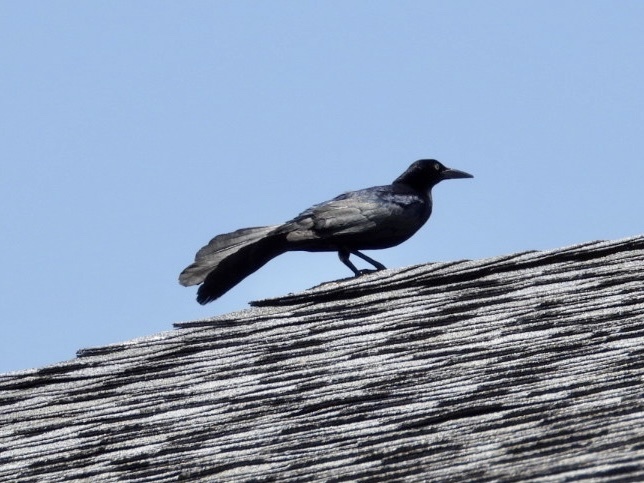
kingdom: Animalia
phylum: Chordata
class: Aves
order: Passeriformes
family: Icteridae
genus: Quiscalus
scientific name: Quiscalus mexicanus
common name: Great-tailed grackle
